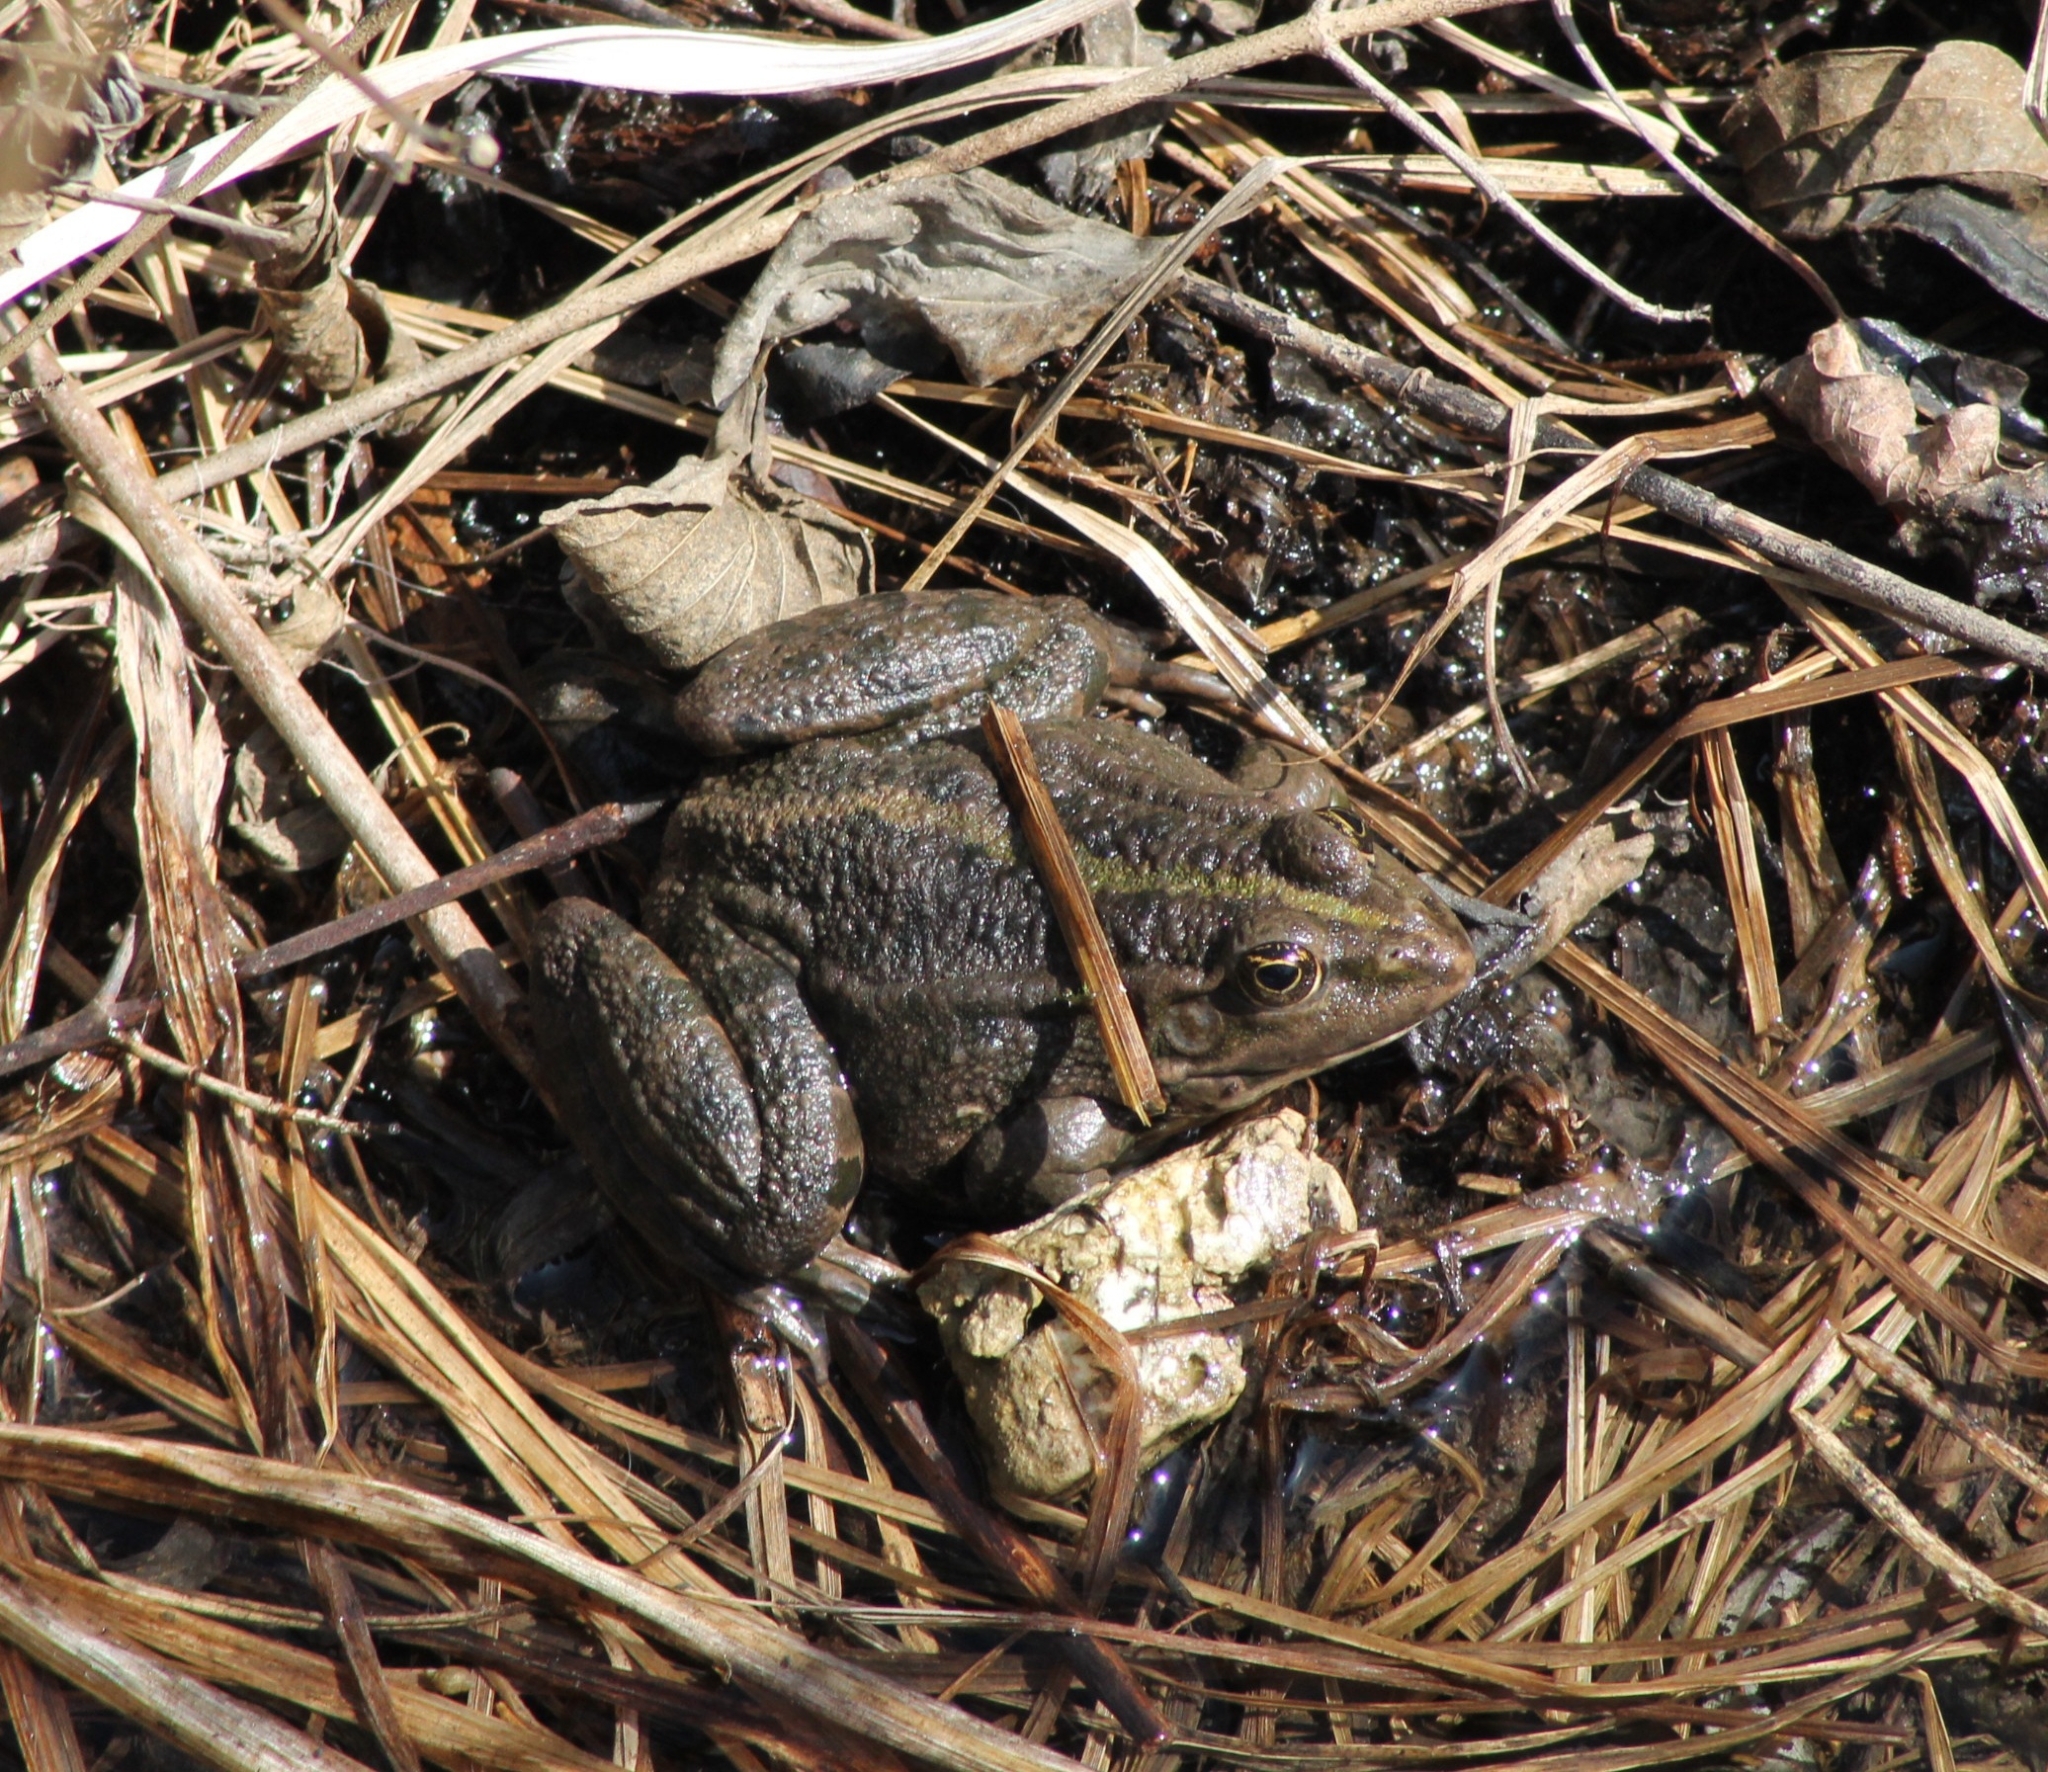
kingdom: Animalia
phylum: Chordata
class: Amphibia
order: Anura
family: Ranidae
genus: Pelophylax
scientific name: Pelophylax
